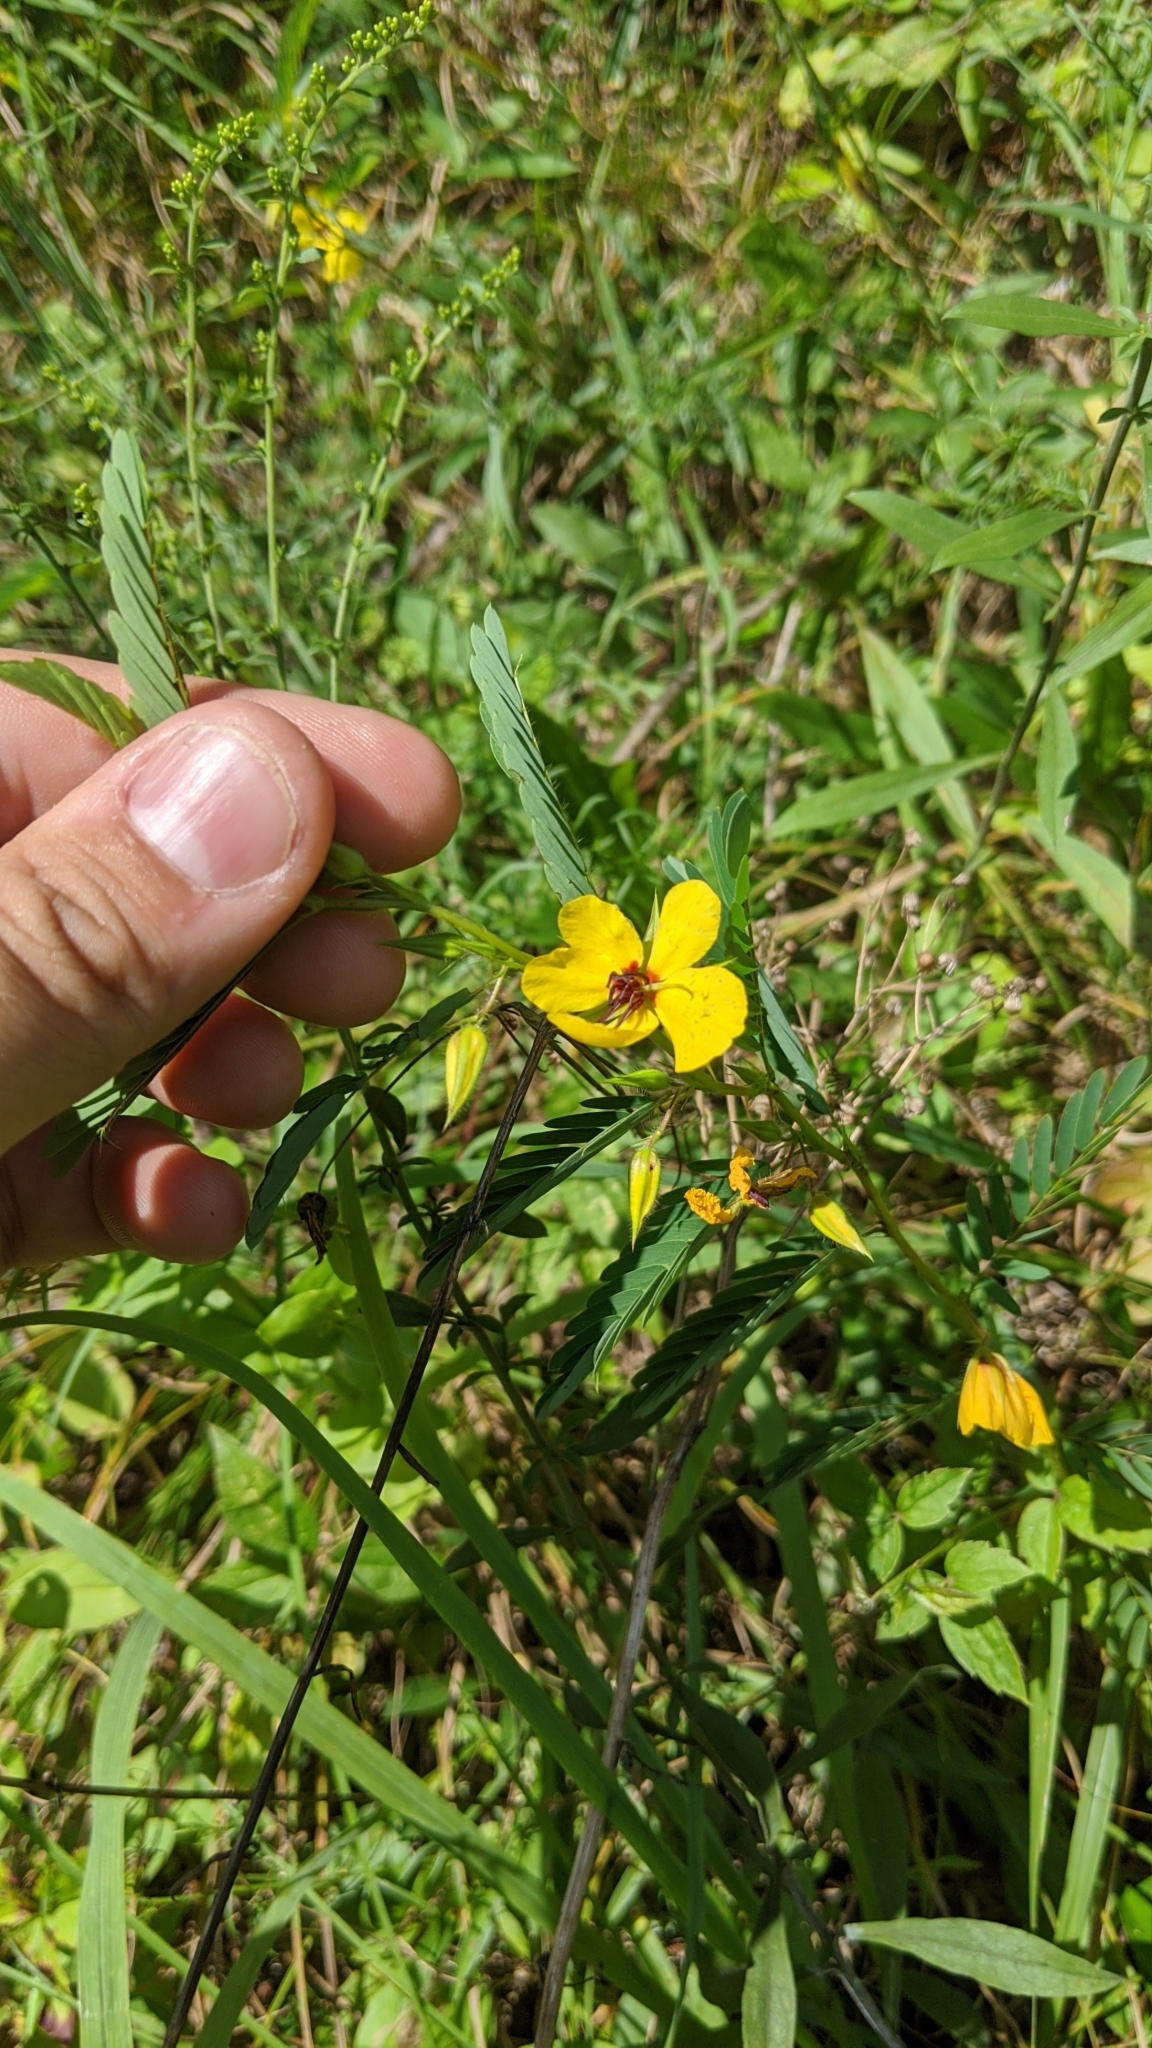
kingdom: Plantae
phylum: Tracheophyta
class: Magnoliopsida
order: Fabales
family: Fabaceae
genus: Chamaecrista
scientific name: Chamaecrista fasciculata
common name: Golden cassia
